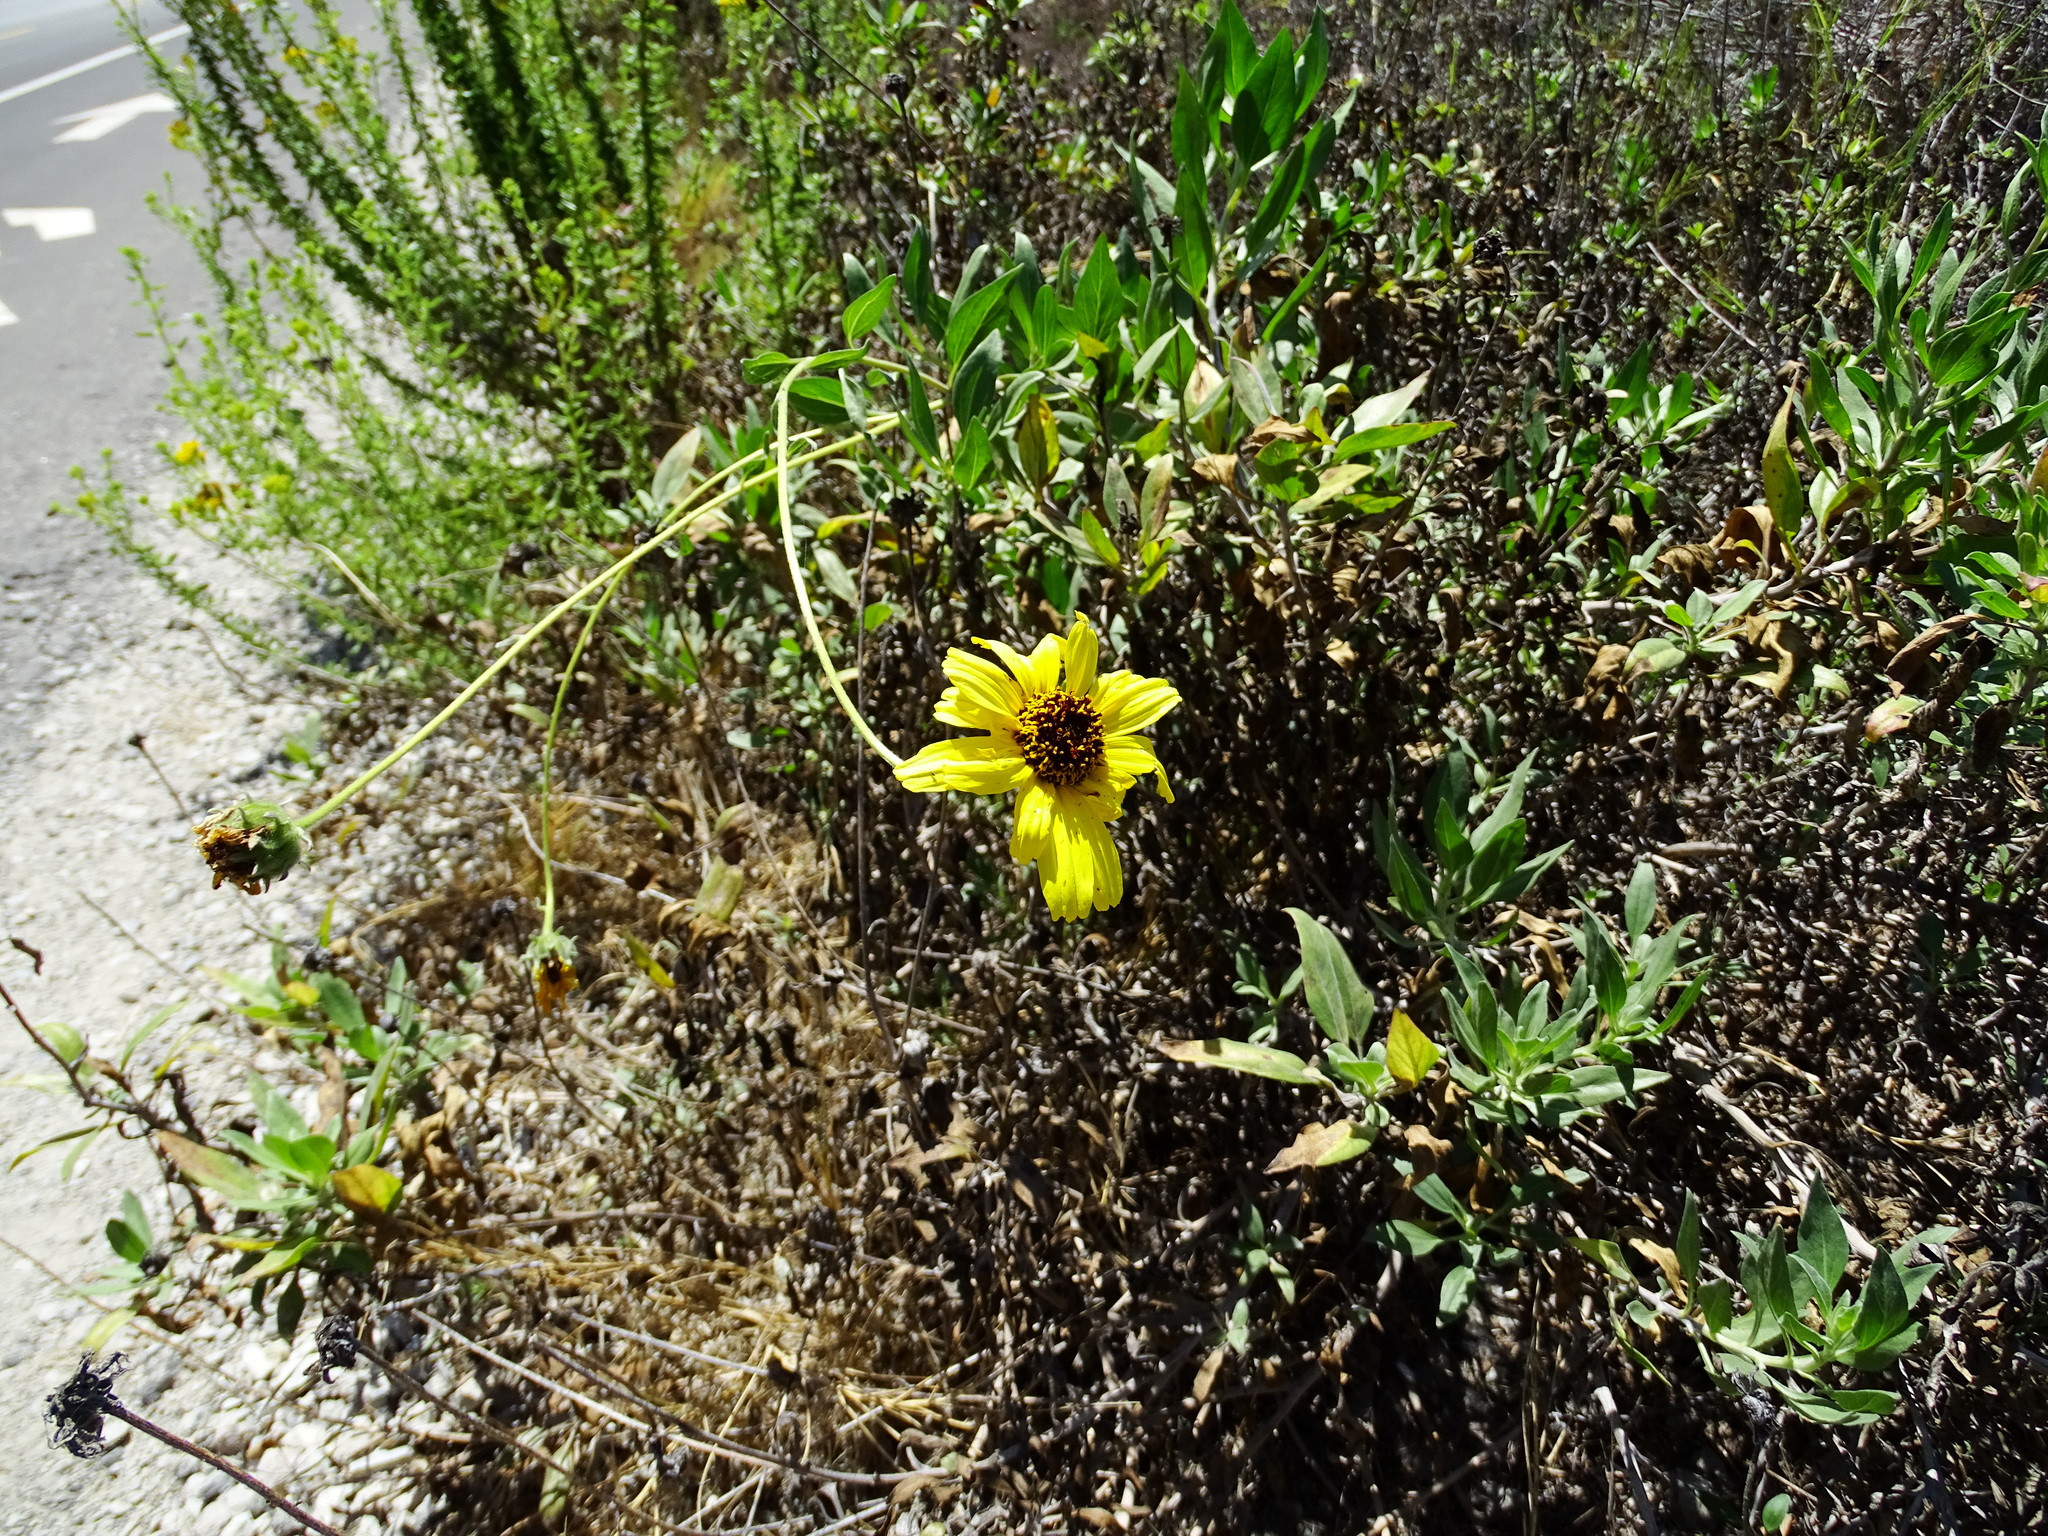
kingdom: Plantae
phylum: Tracheophyta
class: Magnoliopsida
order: Asterales
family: Asteraceae
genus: Encelia
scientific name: Encelia californica
